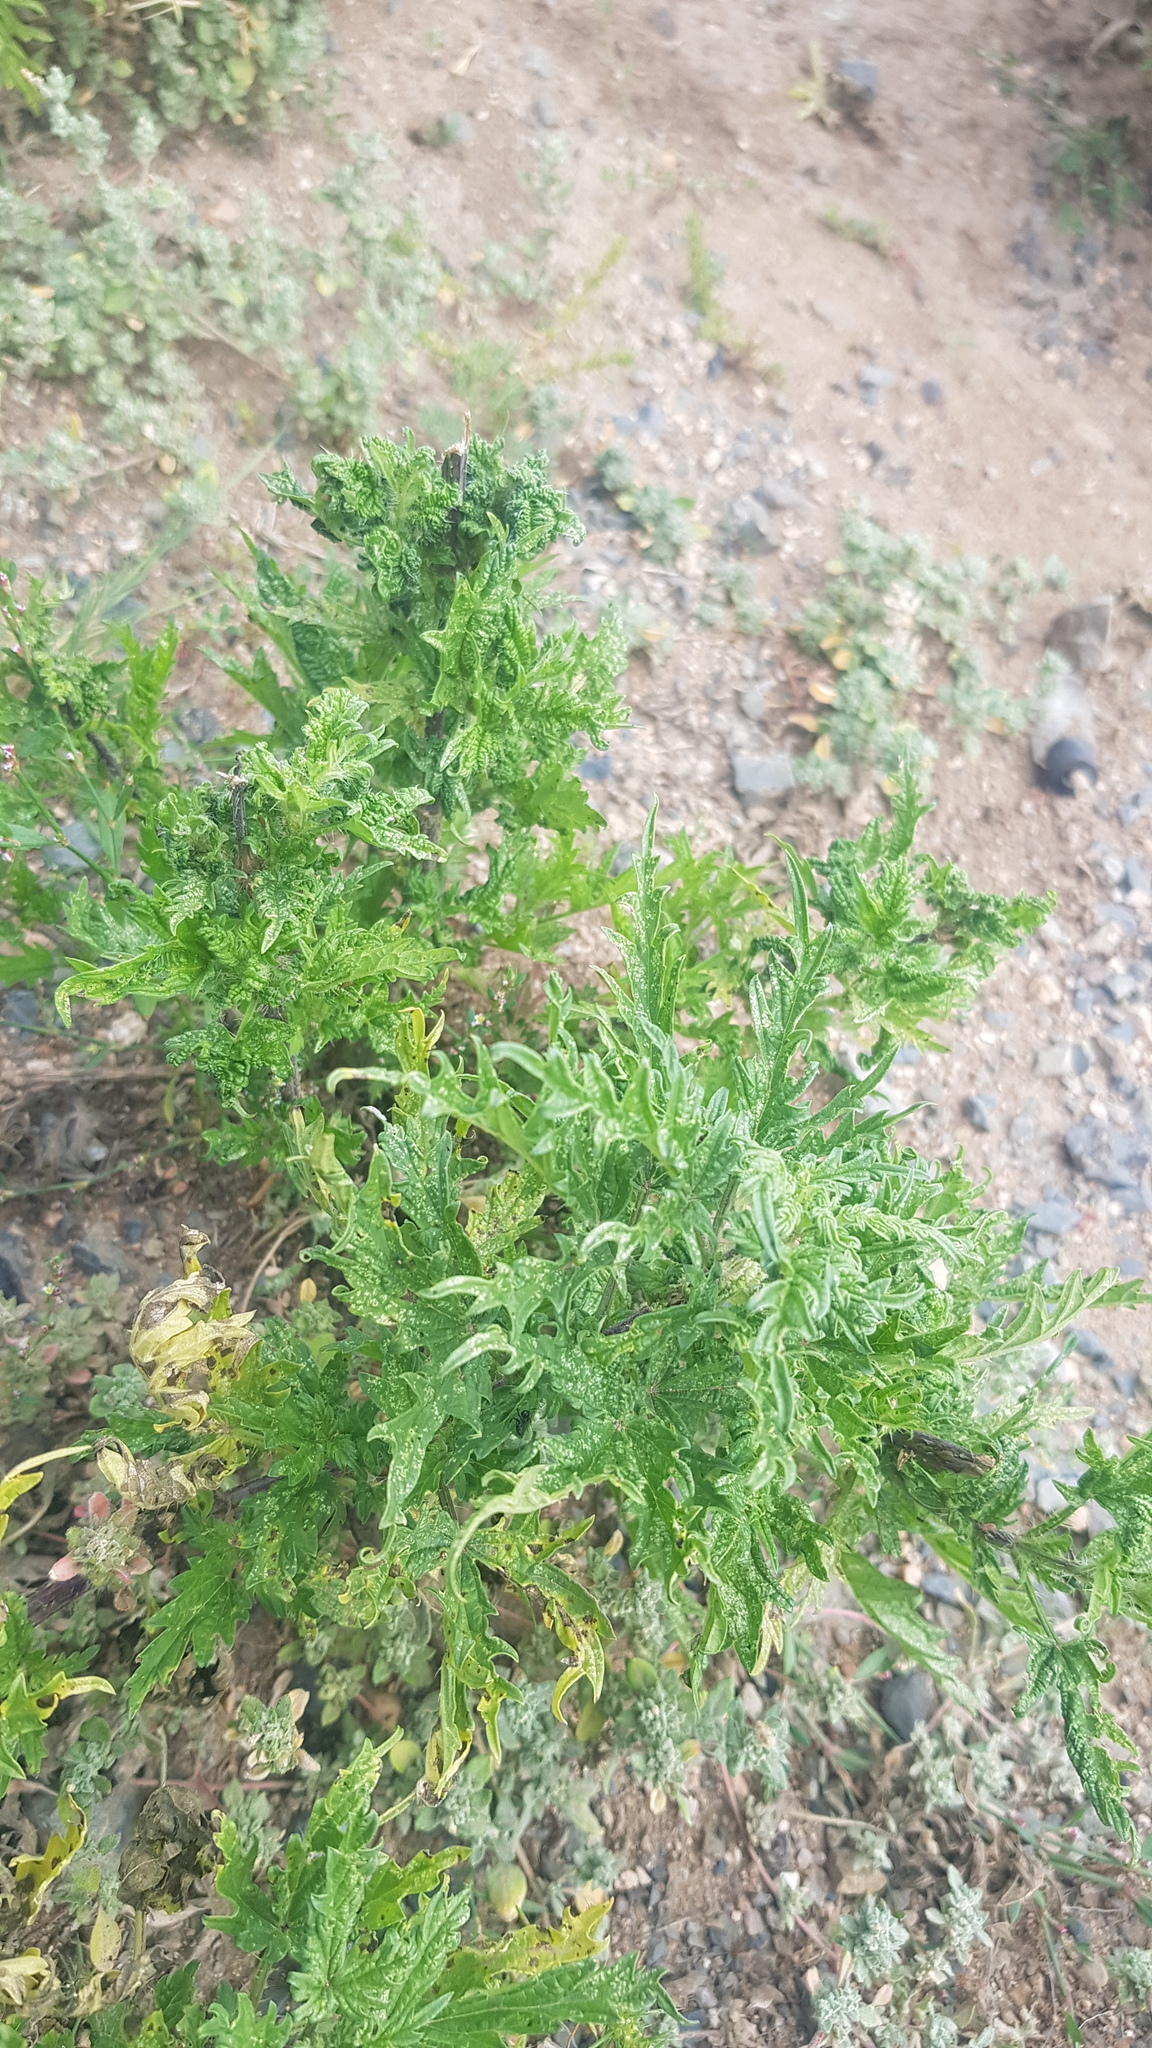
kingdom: Plantae
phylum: Tracheophyta
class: Magnoliopsida
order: Rosales
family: Urticaceae
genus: Urtica
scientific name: Urtica cannabina
